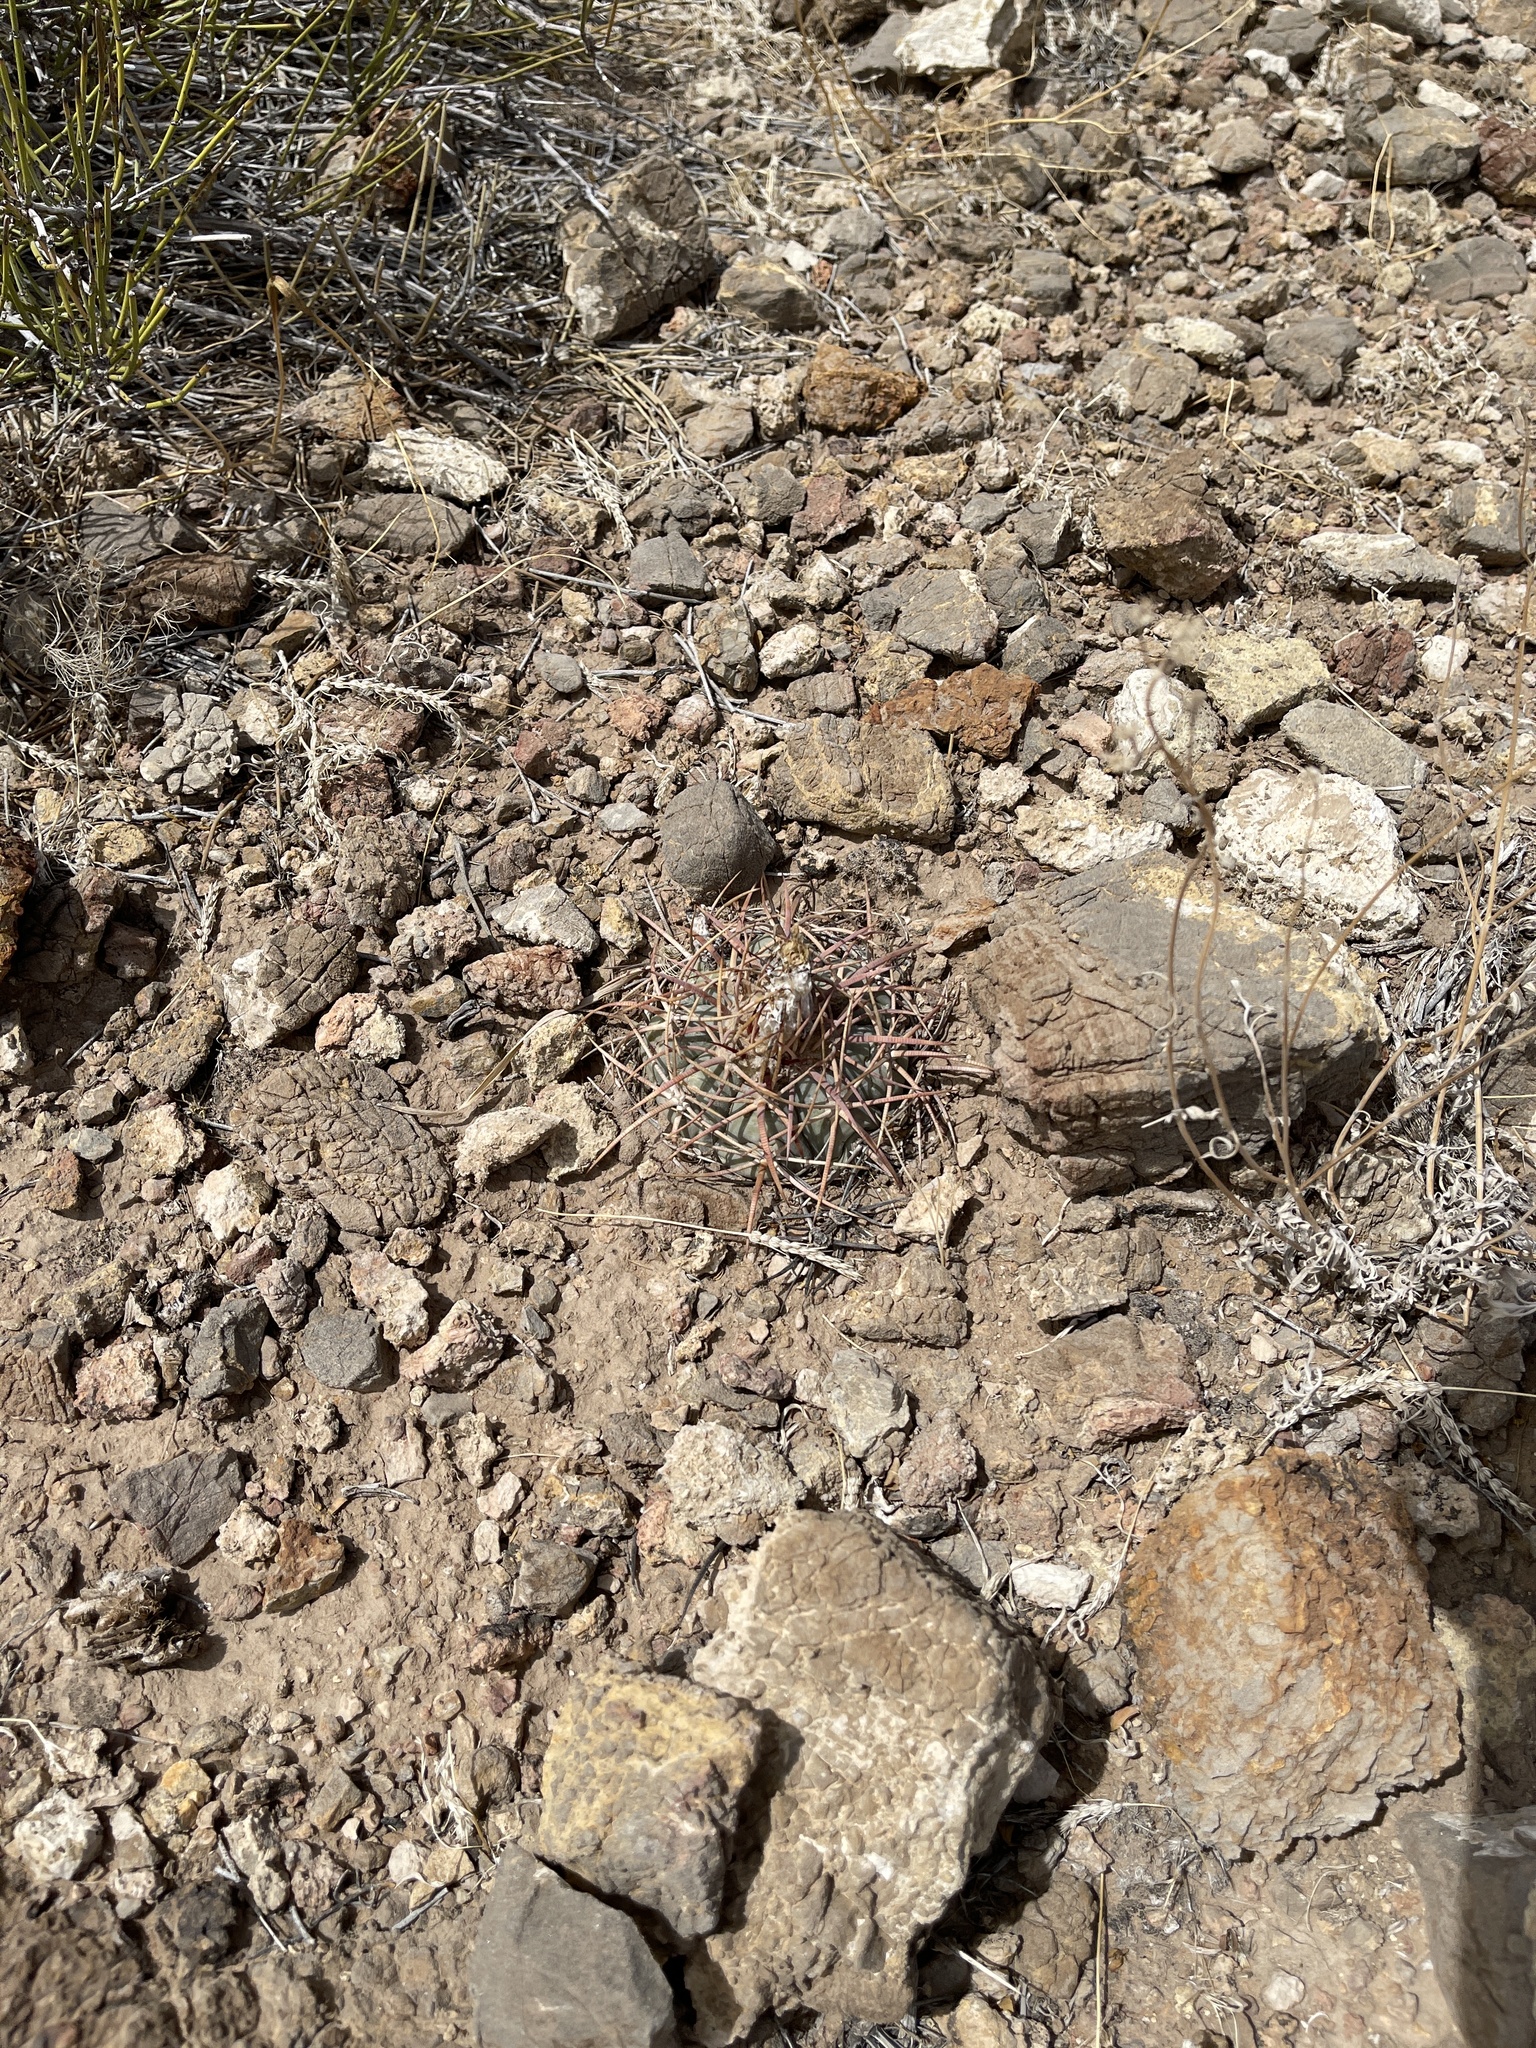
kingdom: Plantae
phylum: Tracheophyta
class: Magnoliopsida
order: Caryophyllales
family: Cactaceae
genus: Echinocactus
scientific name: Echinocactus horizonthalonius
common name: Devilshead
